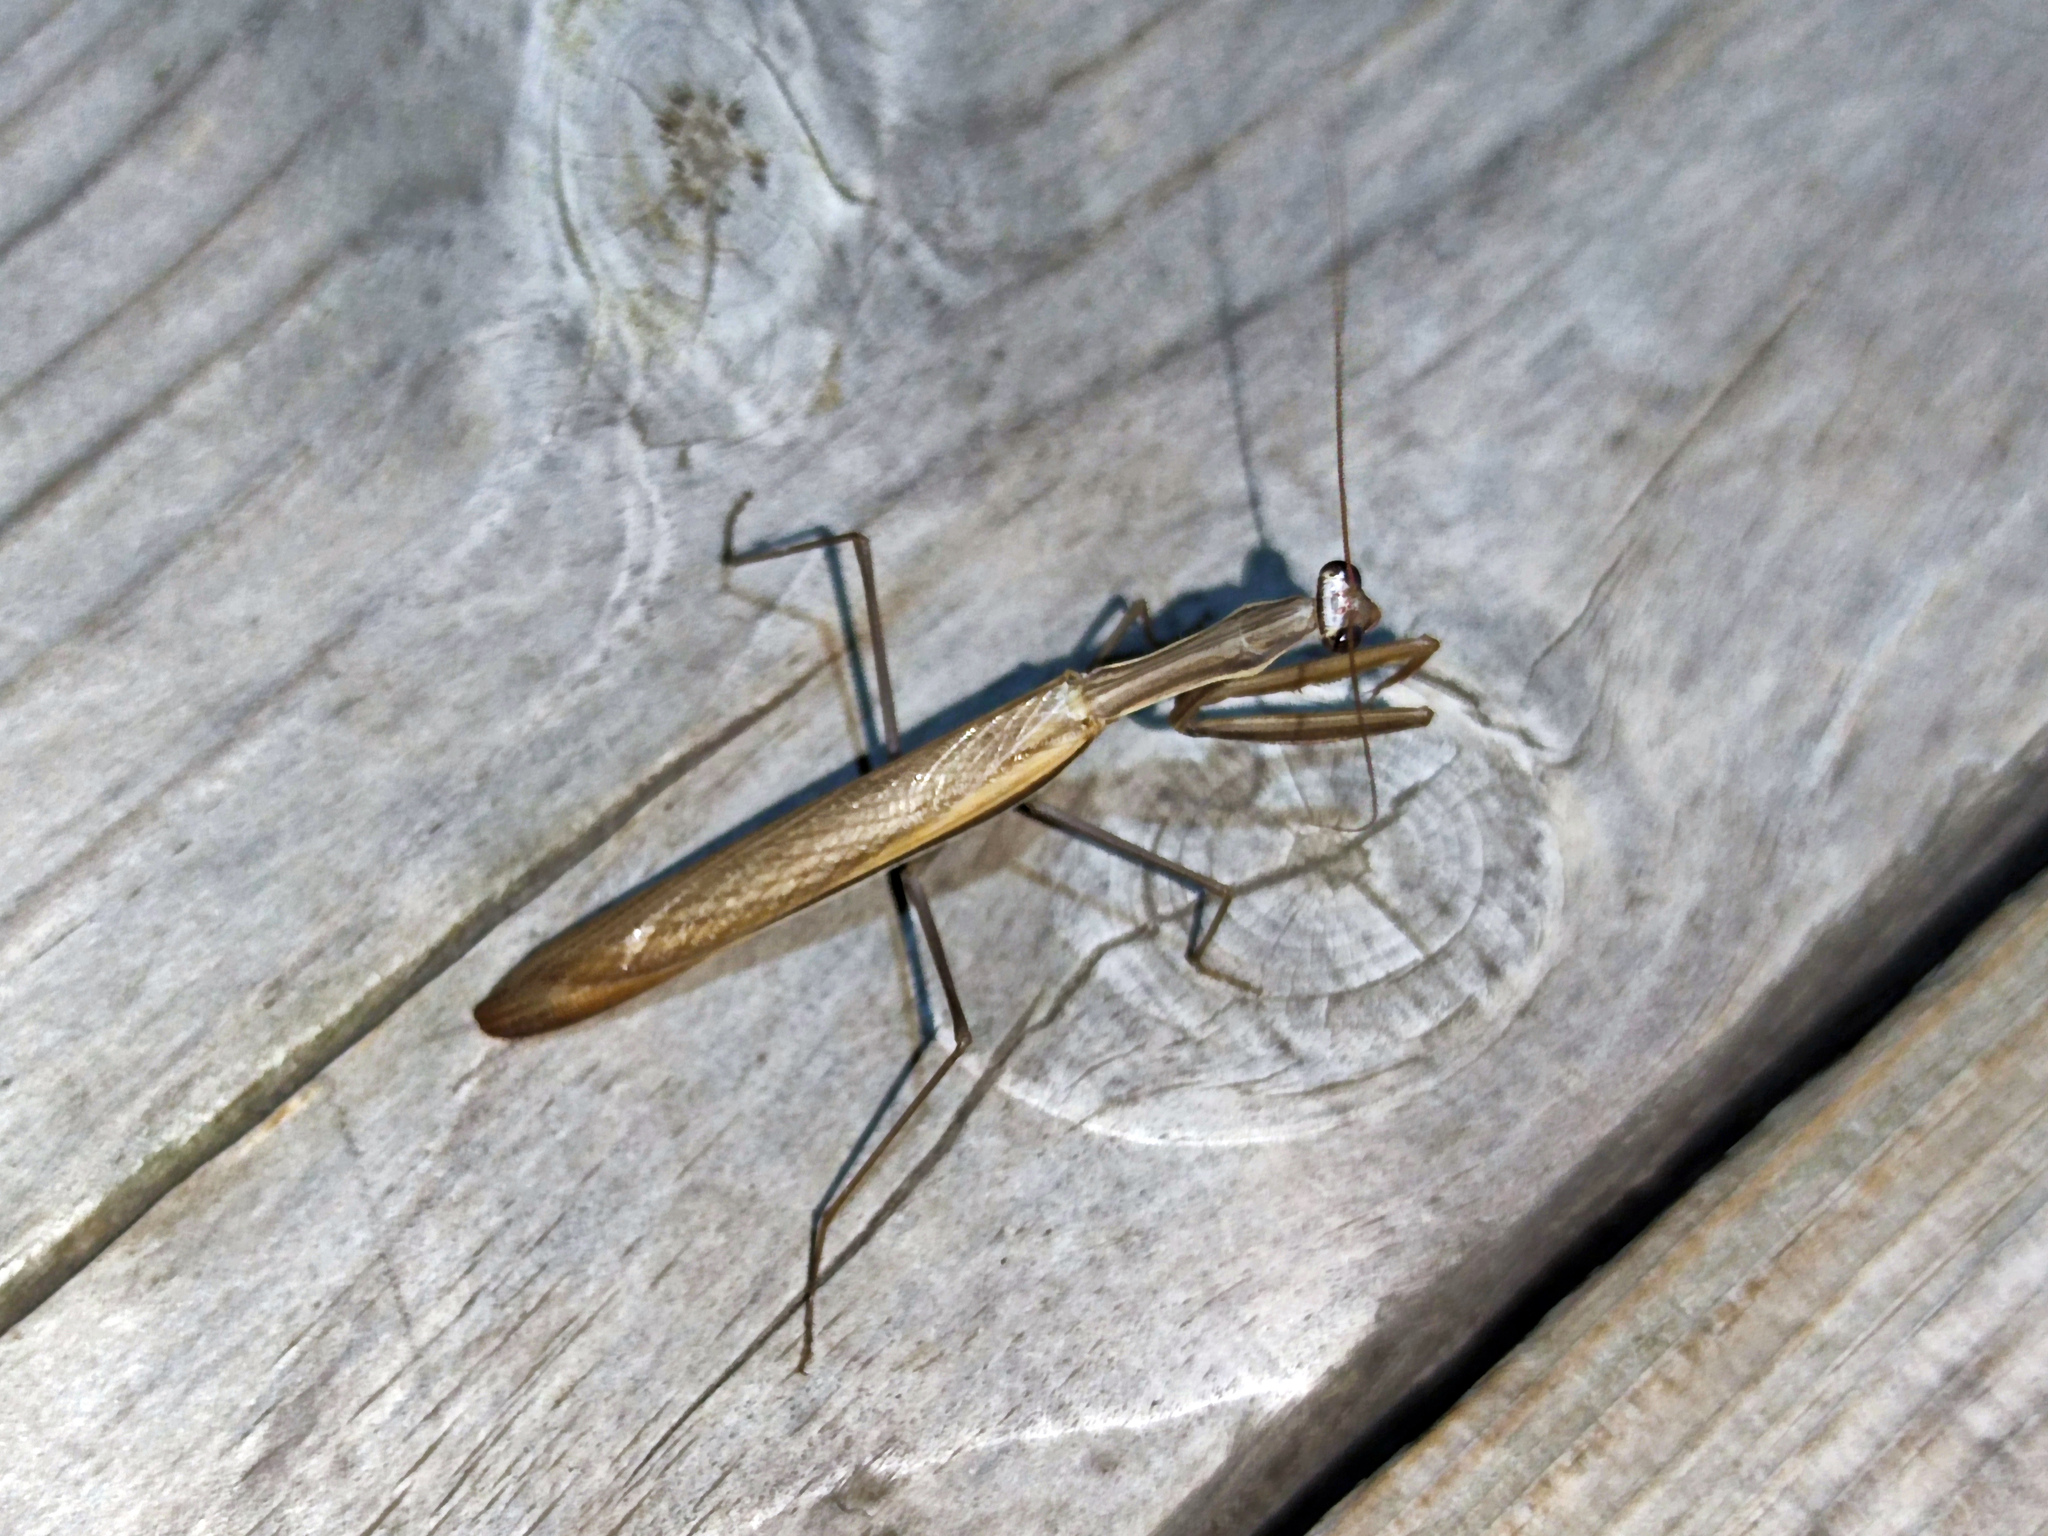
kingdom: Animalia
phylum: Arthropoda
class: Insecta
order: Mantodea
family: Mantidae
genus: Mantis
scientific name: Mantis religiosa
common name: Praying mantis
